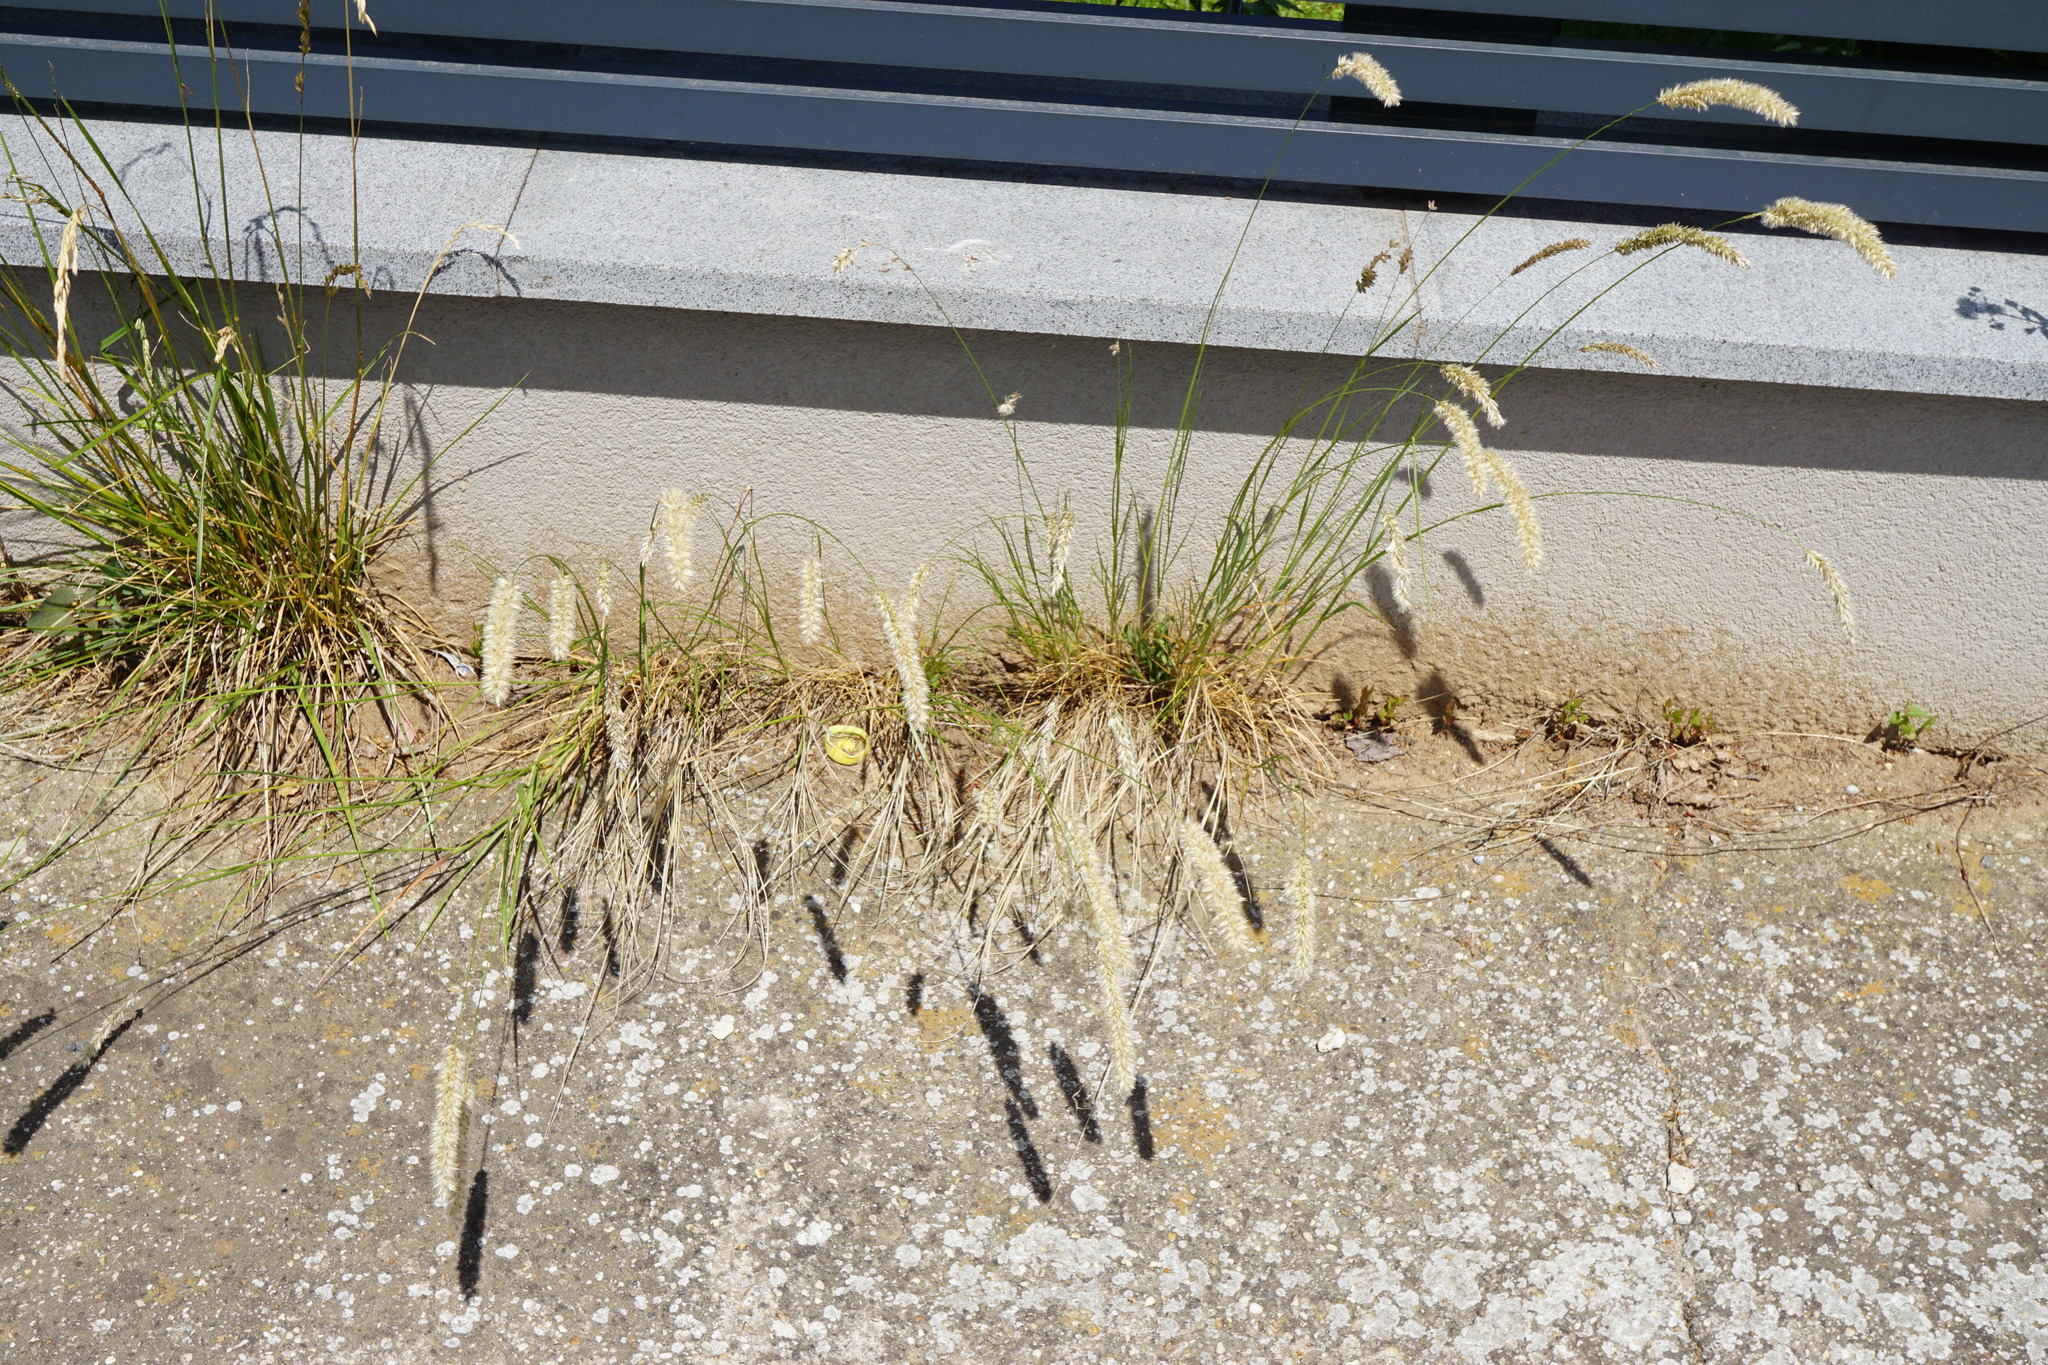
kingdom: Plantae
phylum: Tracheophyta
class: Liliopsida
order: Poales
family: Poaceae
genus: Melica
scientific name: Melica transsilvanica
